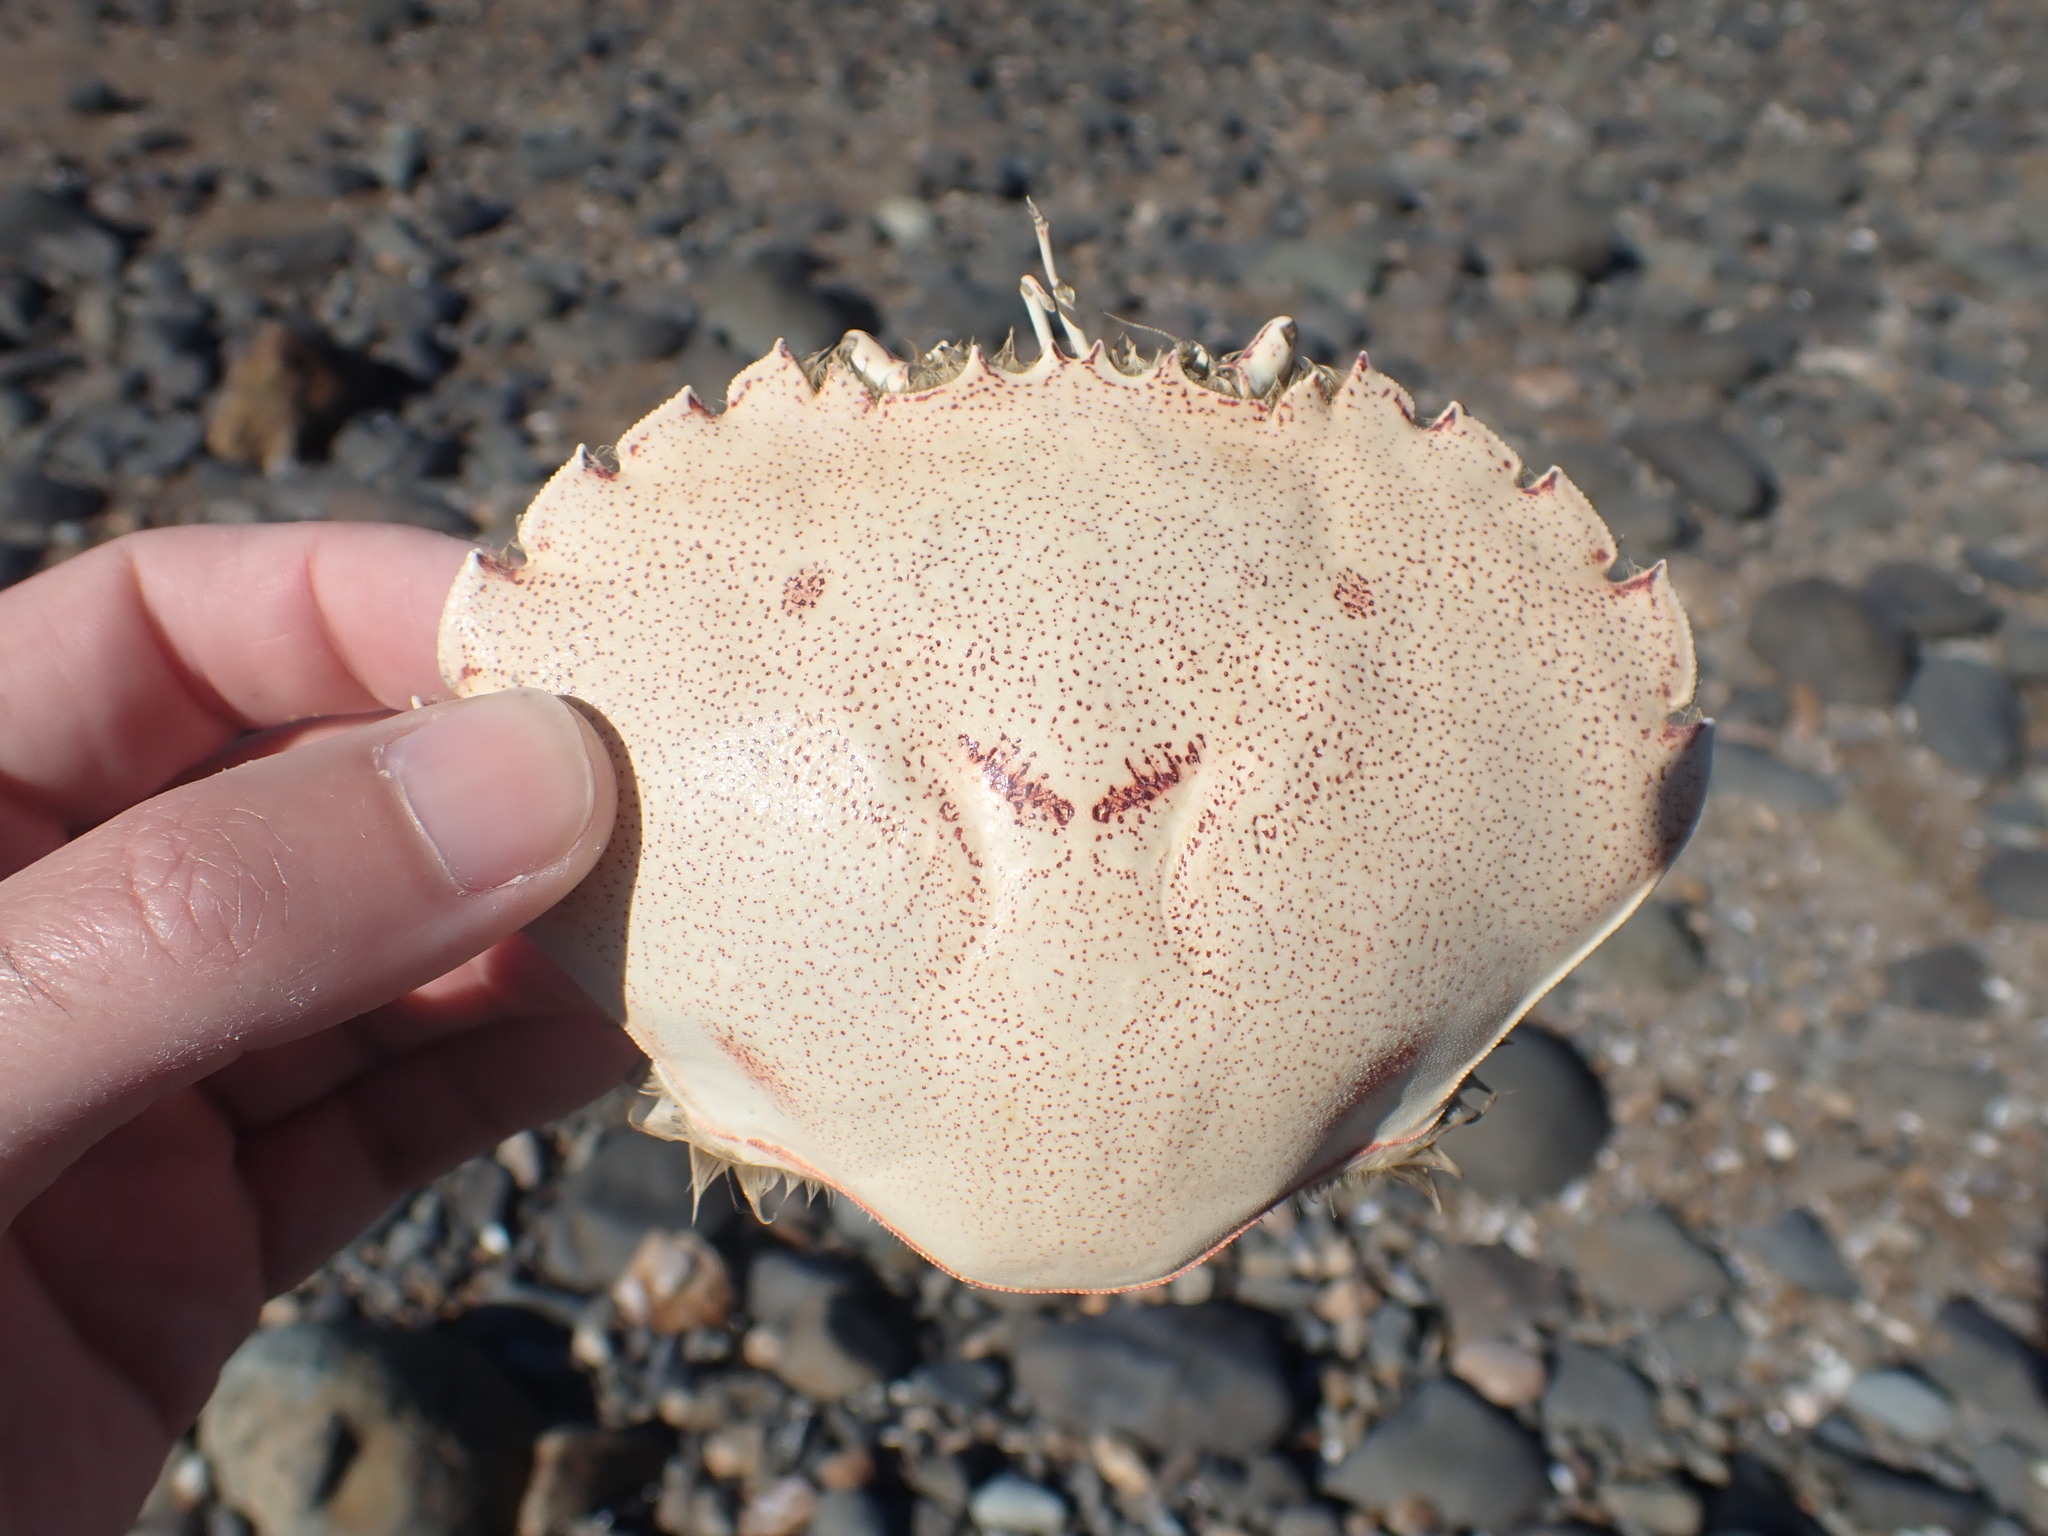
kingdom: Animalia
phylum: Arthropoda
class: Malacostraca
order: Decapoda
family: Ovalipidae
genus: Ovalipes
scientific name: Ovalipes catharus
